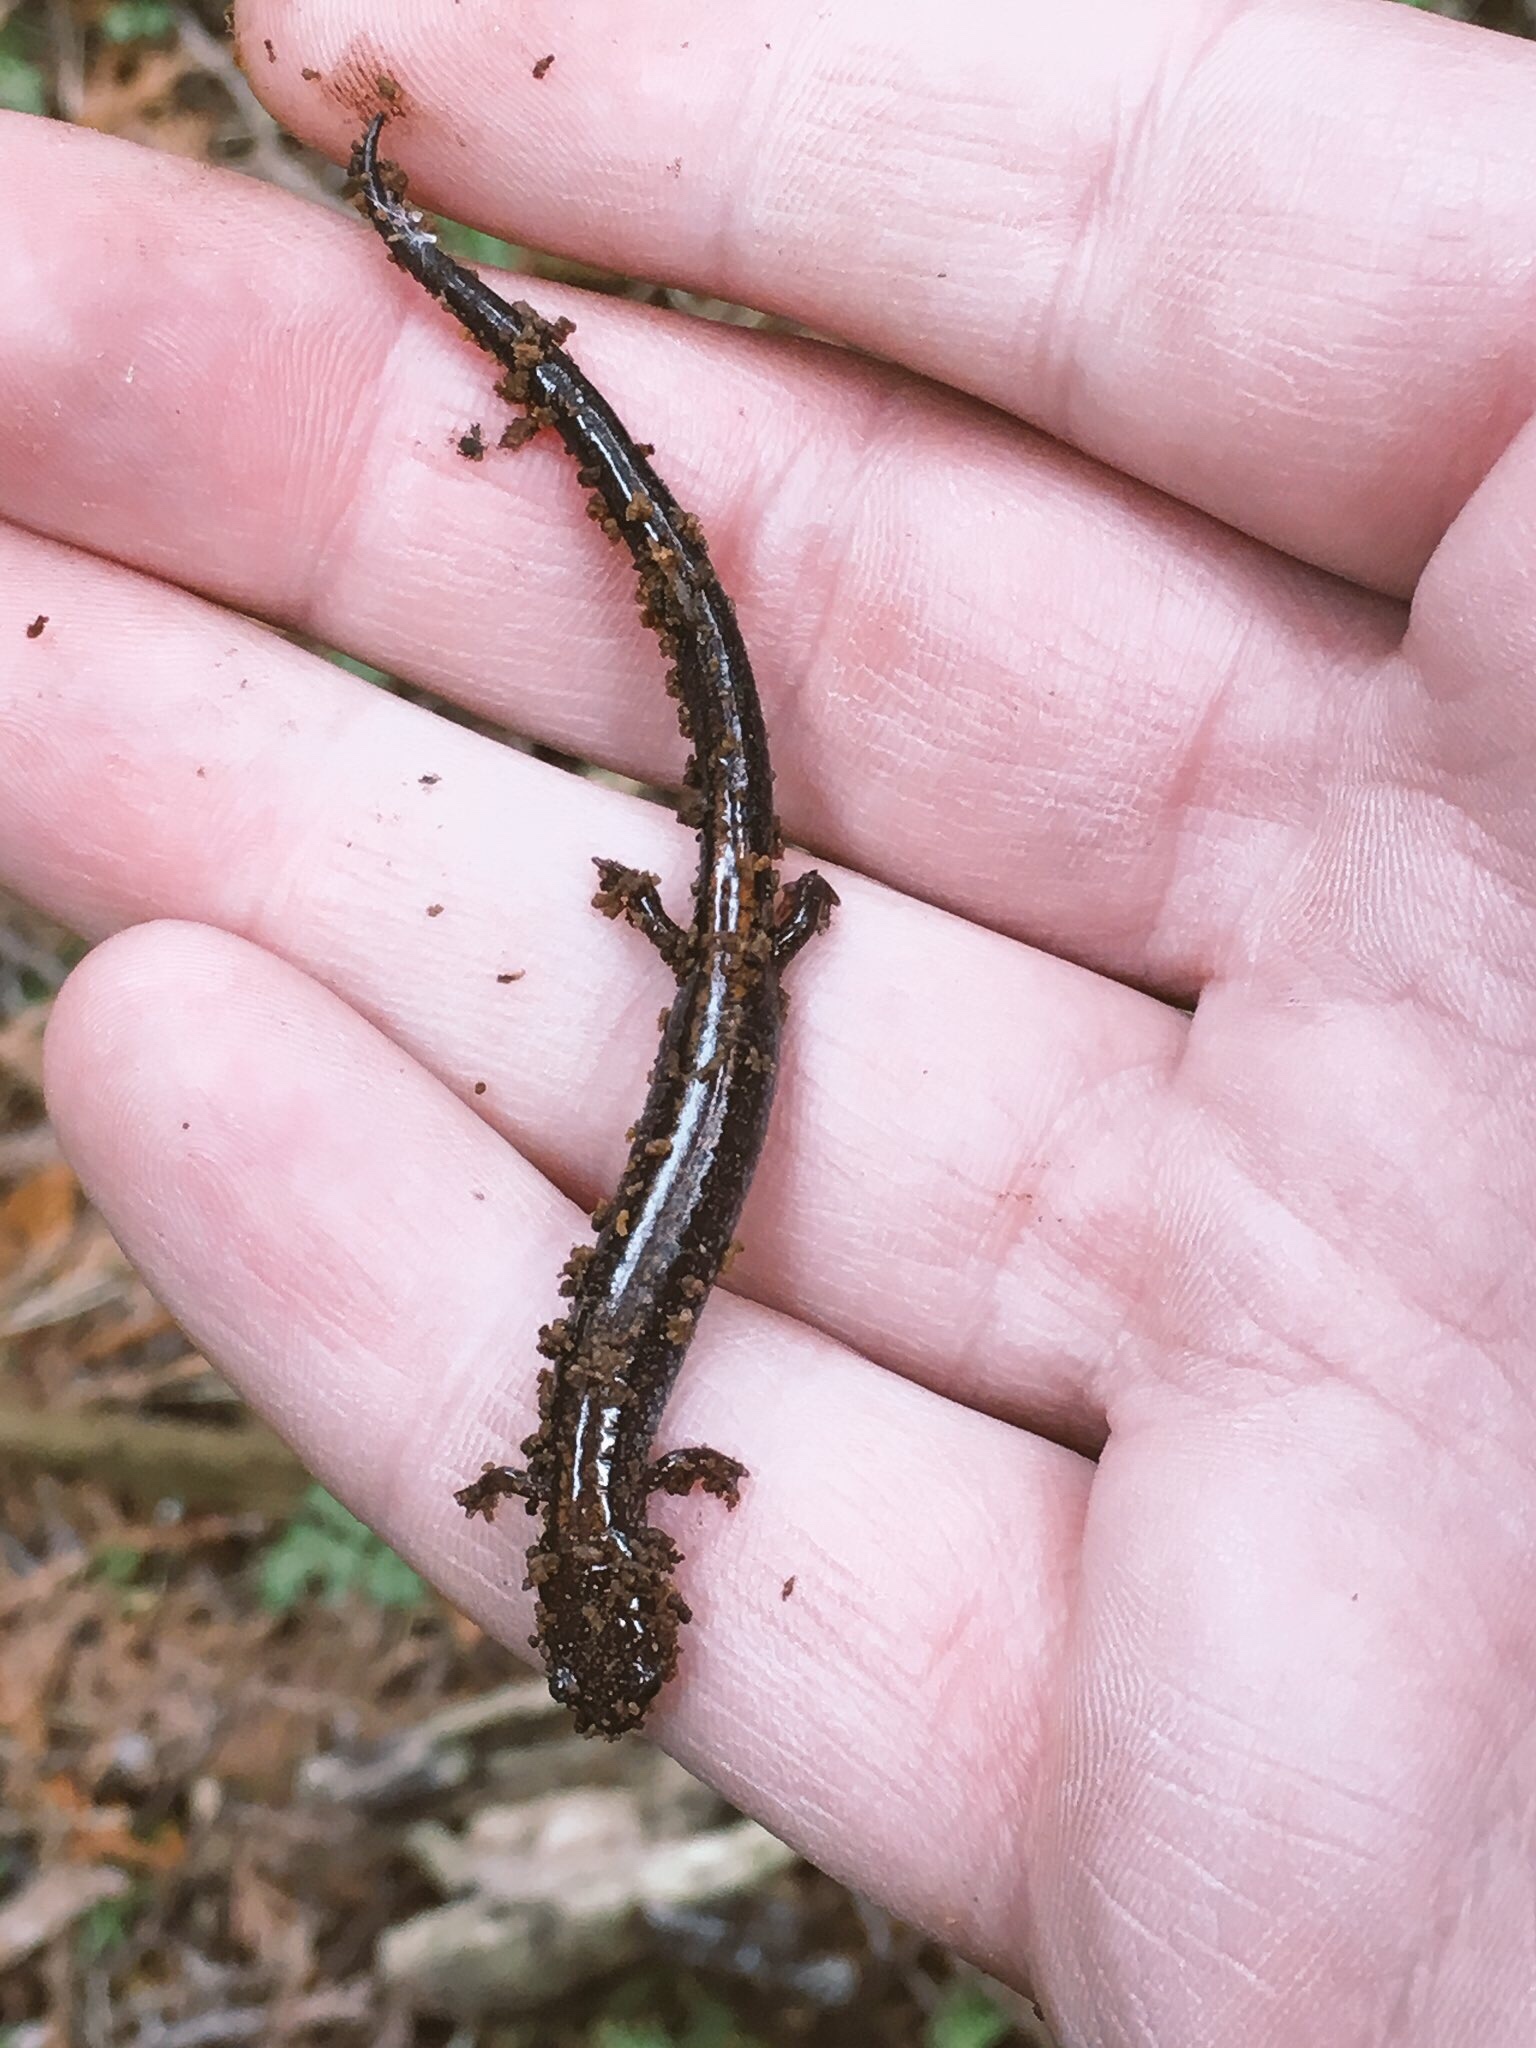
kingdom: Animalia
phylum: Chordata
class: Amphibia
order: Caudata
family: Plethodontidae
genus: Plethodon
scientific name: Plethodon cinereus
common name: Redback salamander
